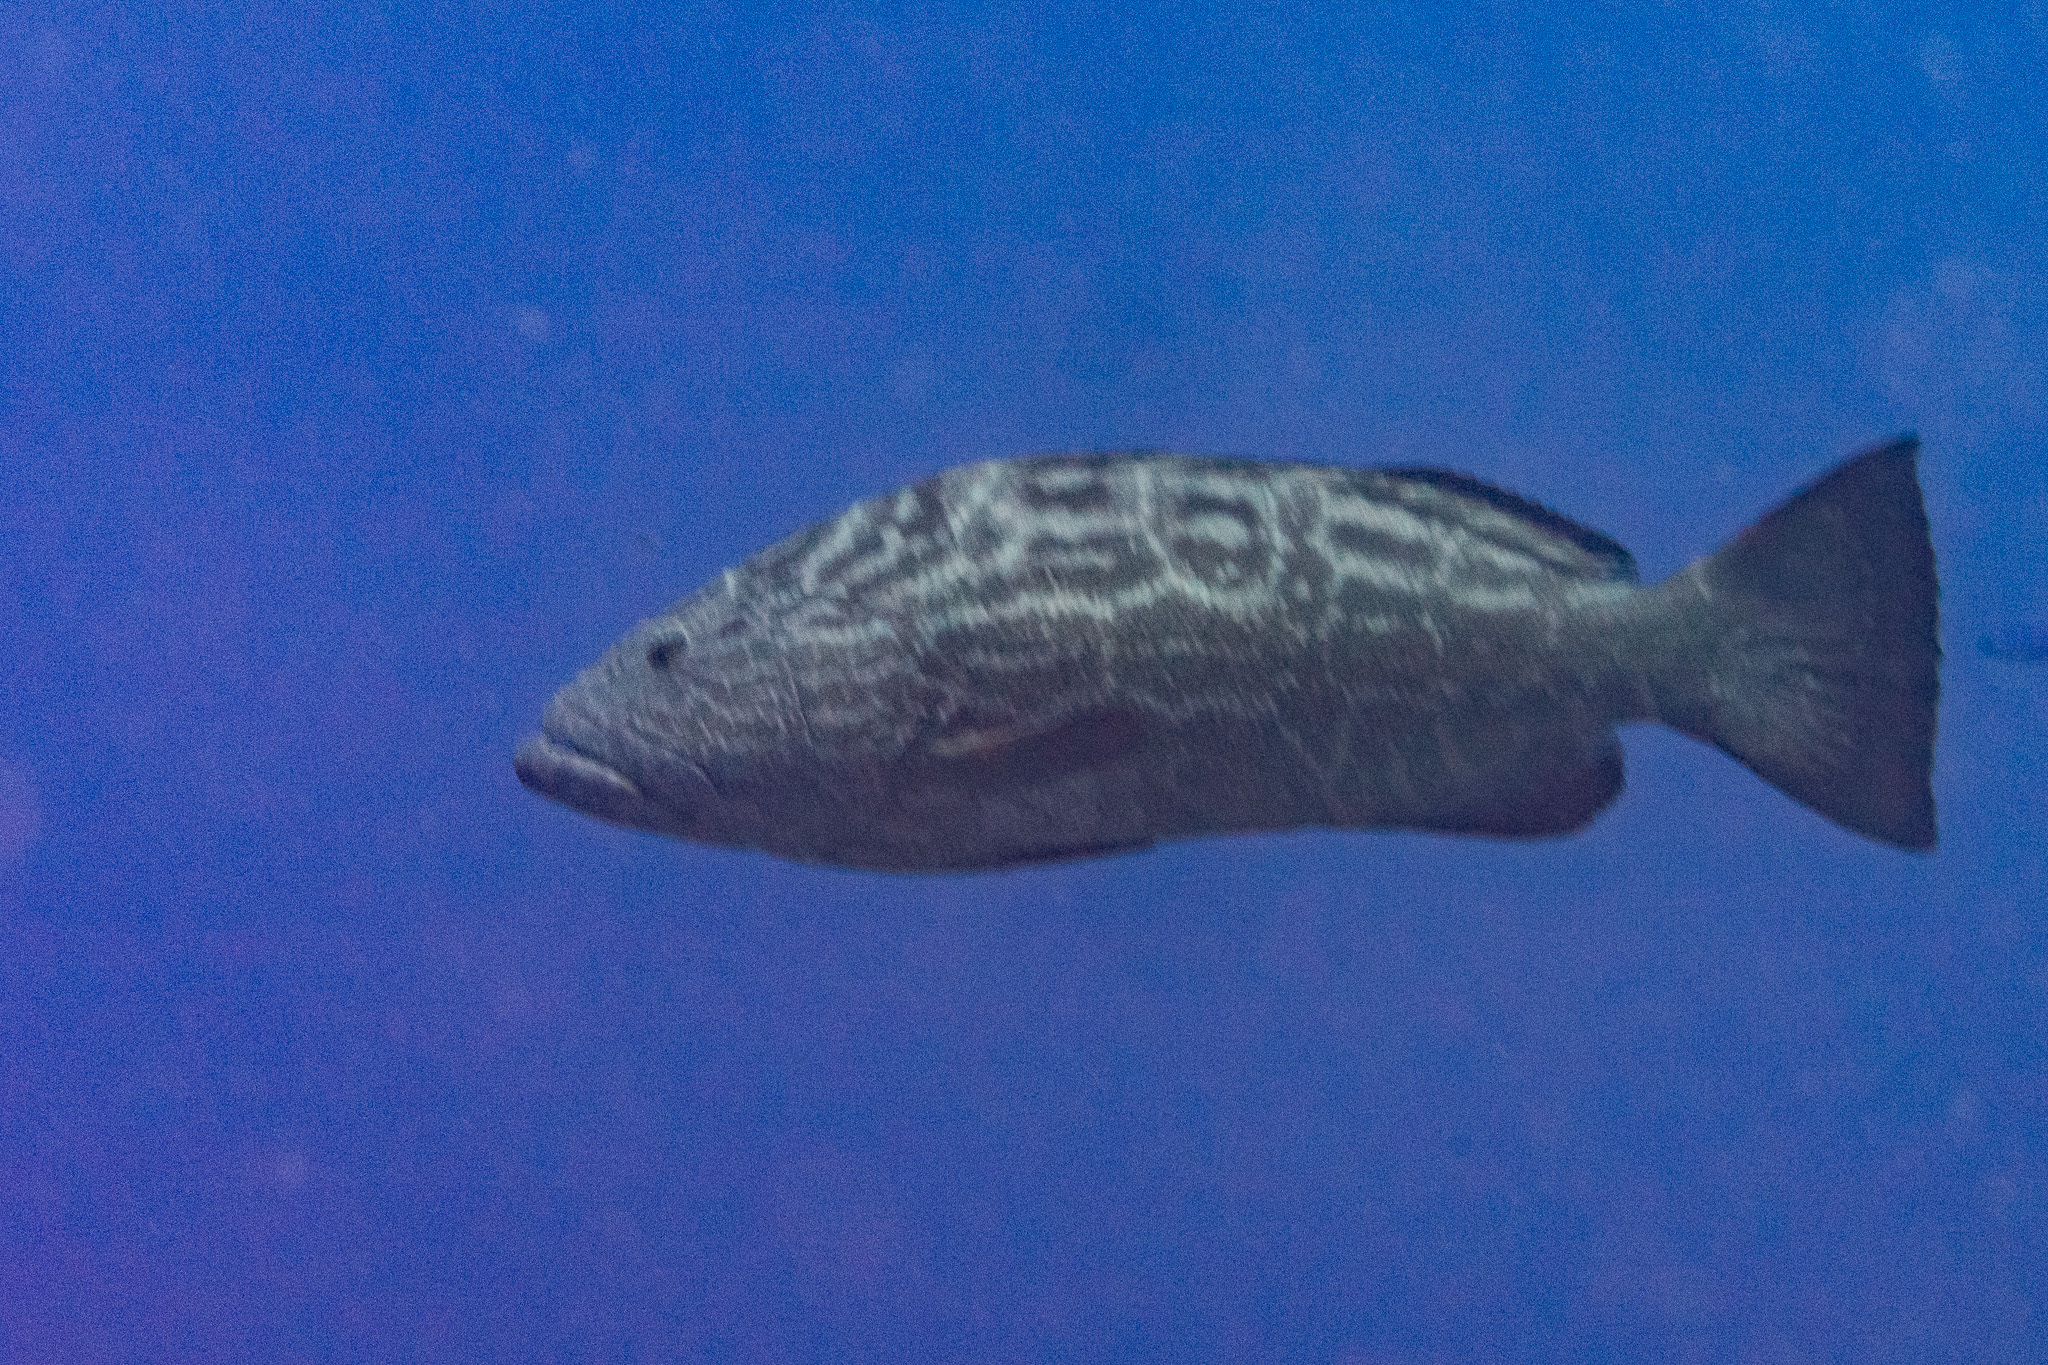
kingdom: Animalia
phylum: Chordata
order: Perciformes
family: Serranidae
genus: Mycteroperca
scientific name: Mycteroperca bonaci
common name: Black grouper
